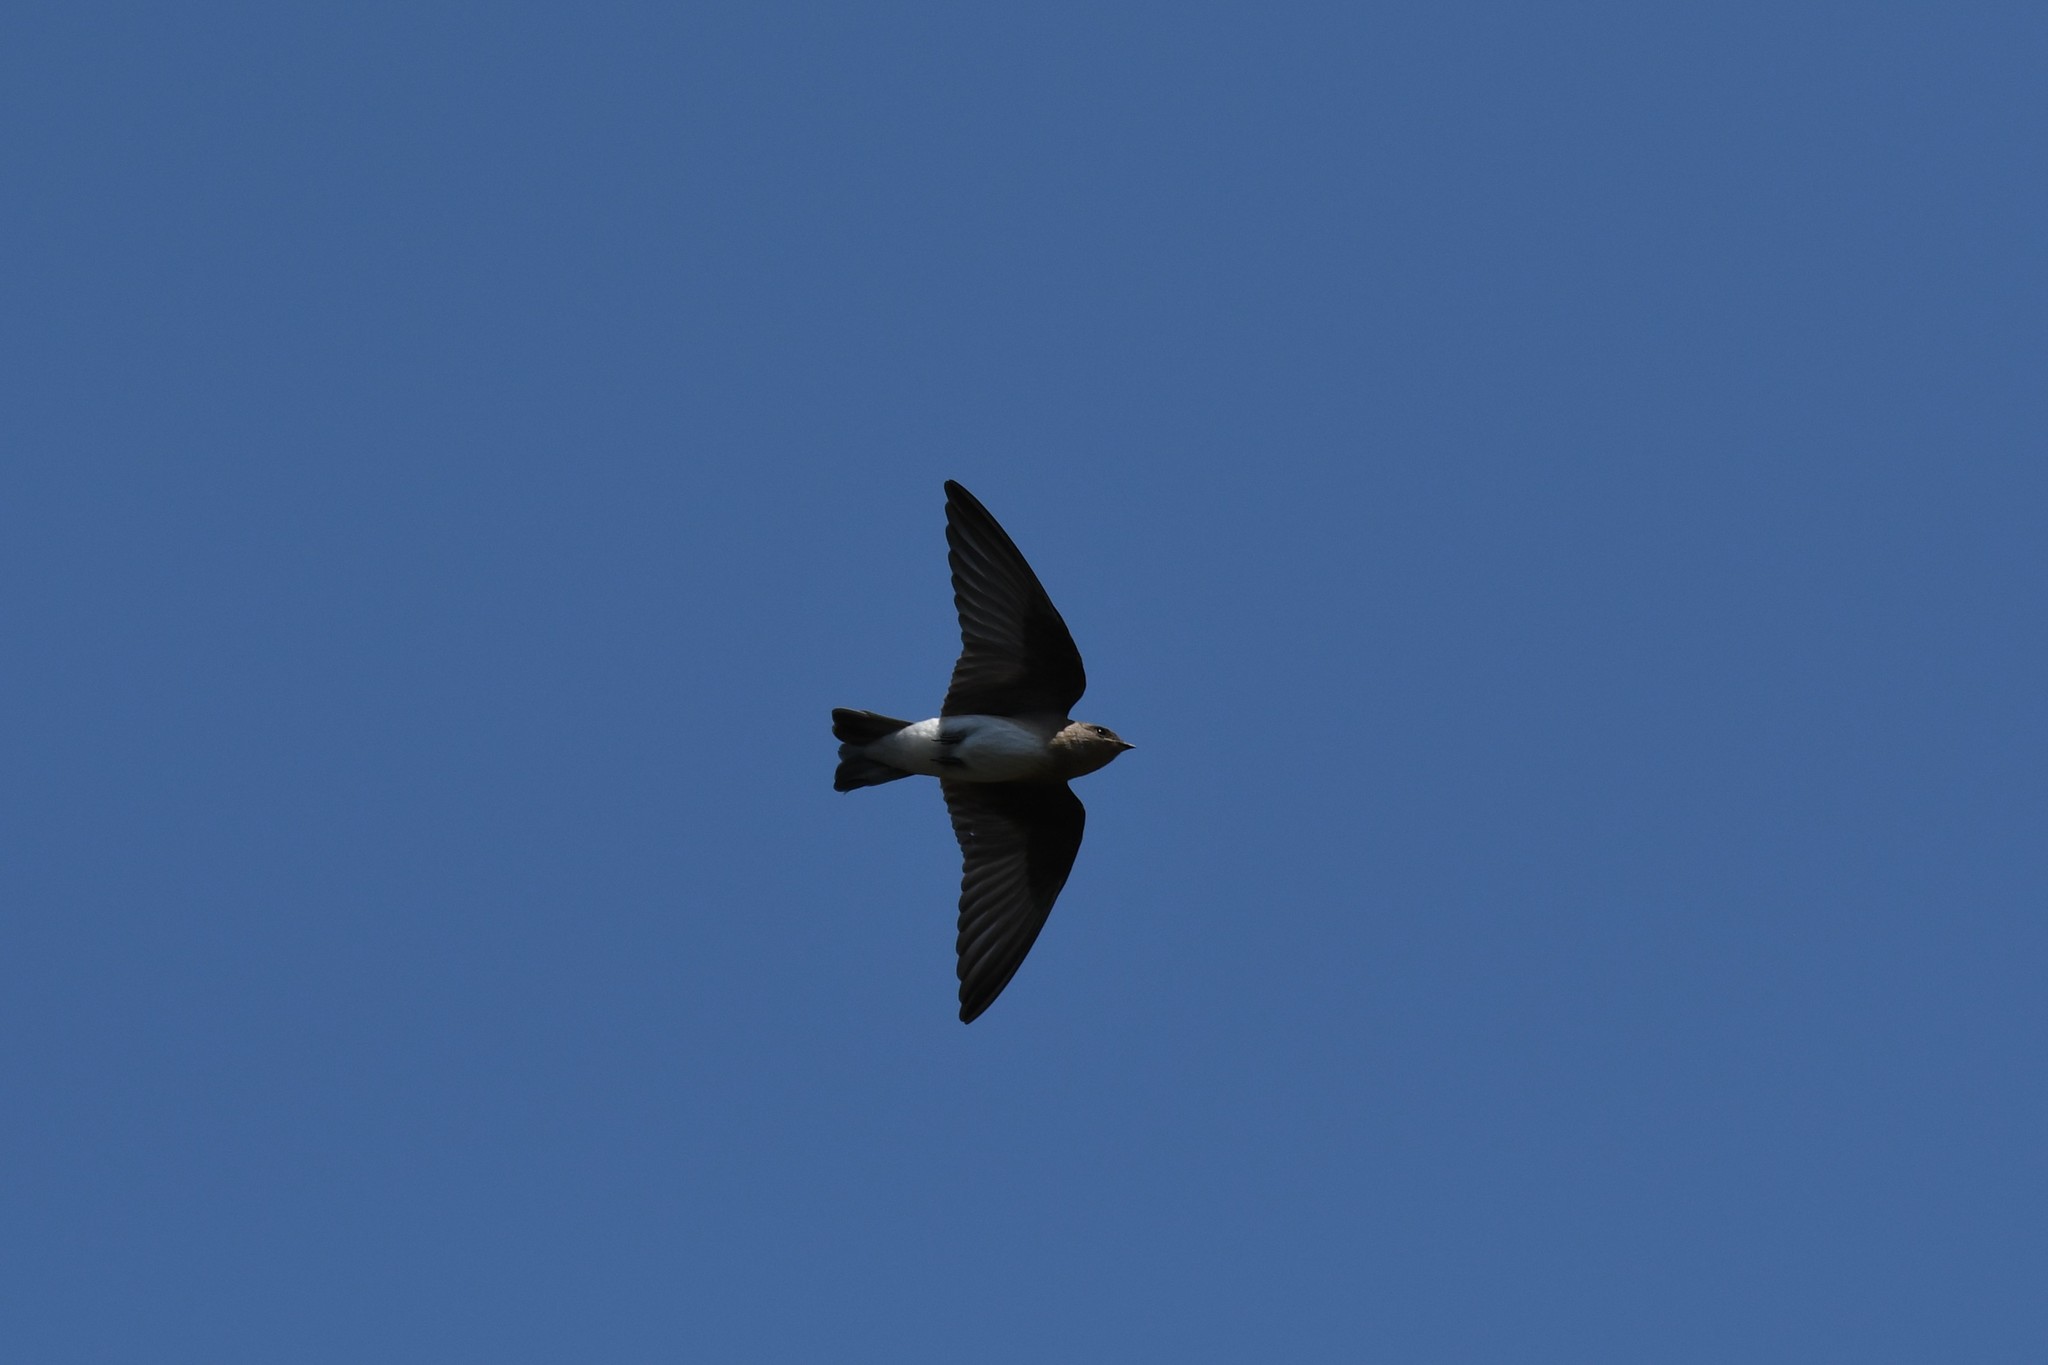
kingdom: Animalia
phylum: Chordata
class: Aves
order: Passeriformes
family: Hirundinidae
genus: Stelgidopteryx
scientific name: Stelgidopteryx serripennis
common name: Northern rough-winged swallow
